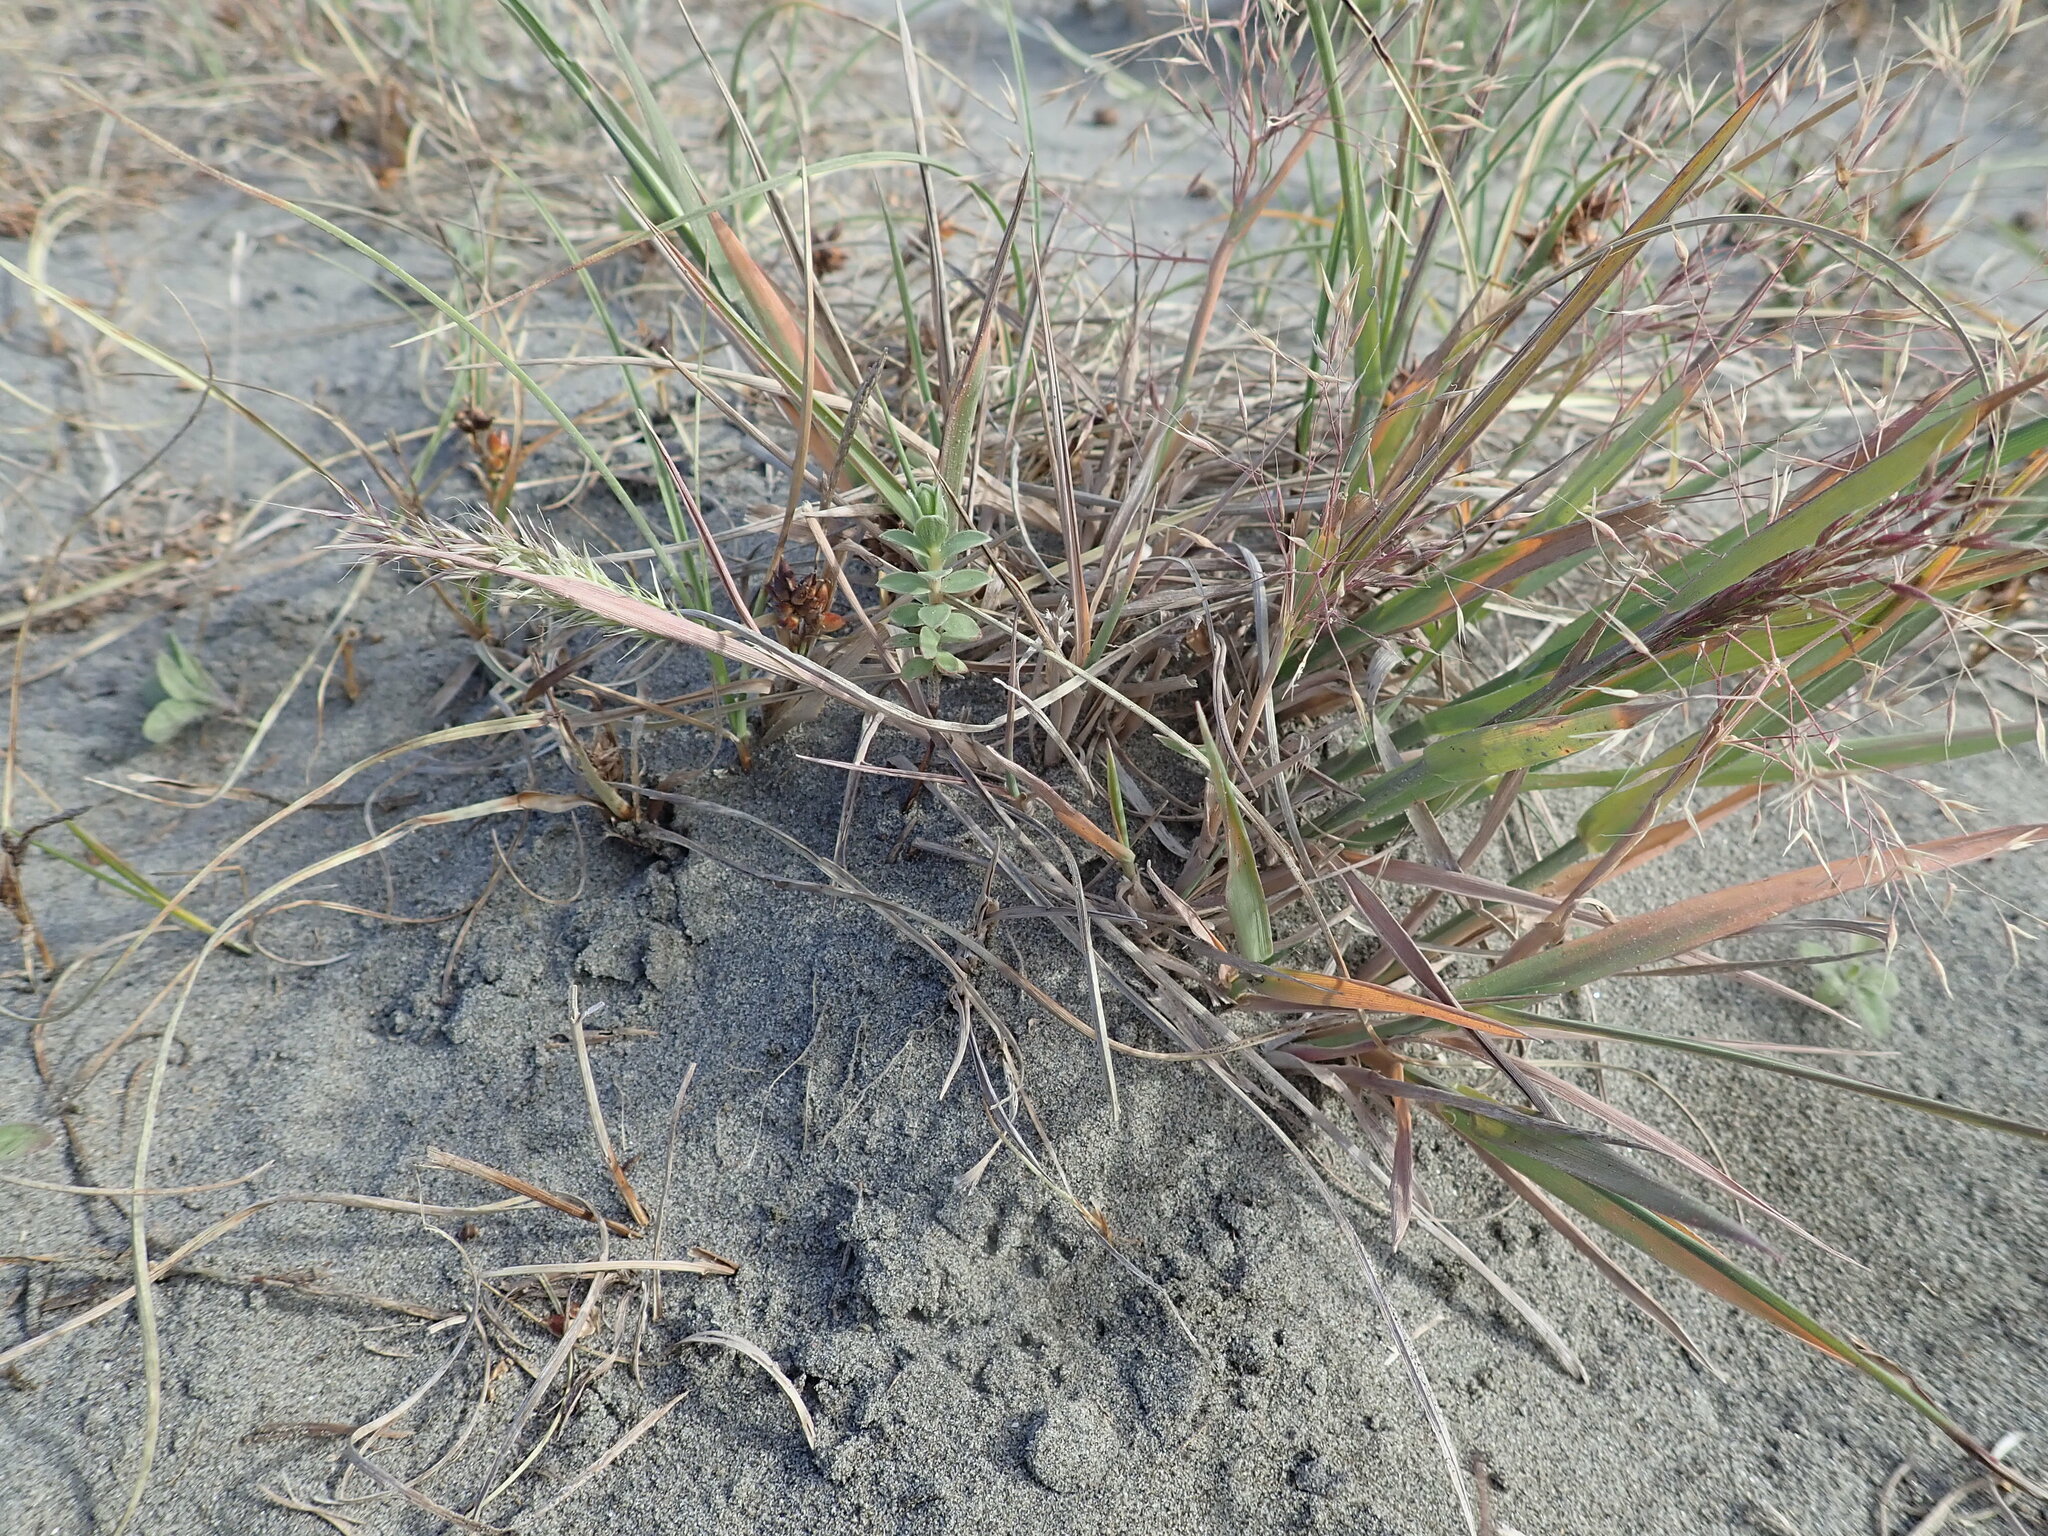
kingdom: Plantae
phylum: Tracheophyta
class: Magnoliopsida
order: Malvales
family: Thymelaeaceae
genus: Pimelea
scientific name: Pimelea villosa
